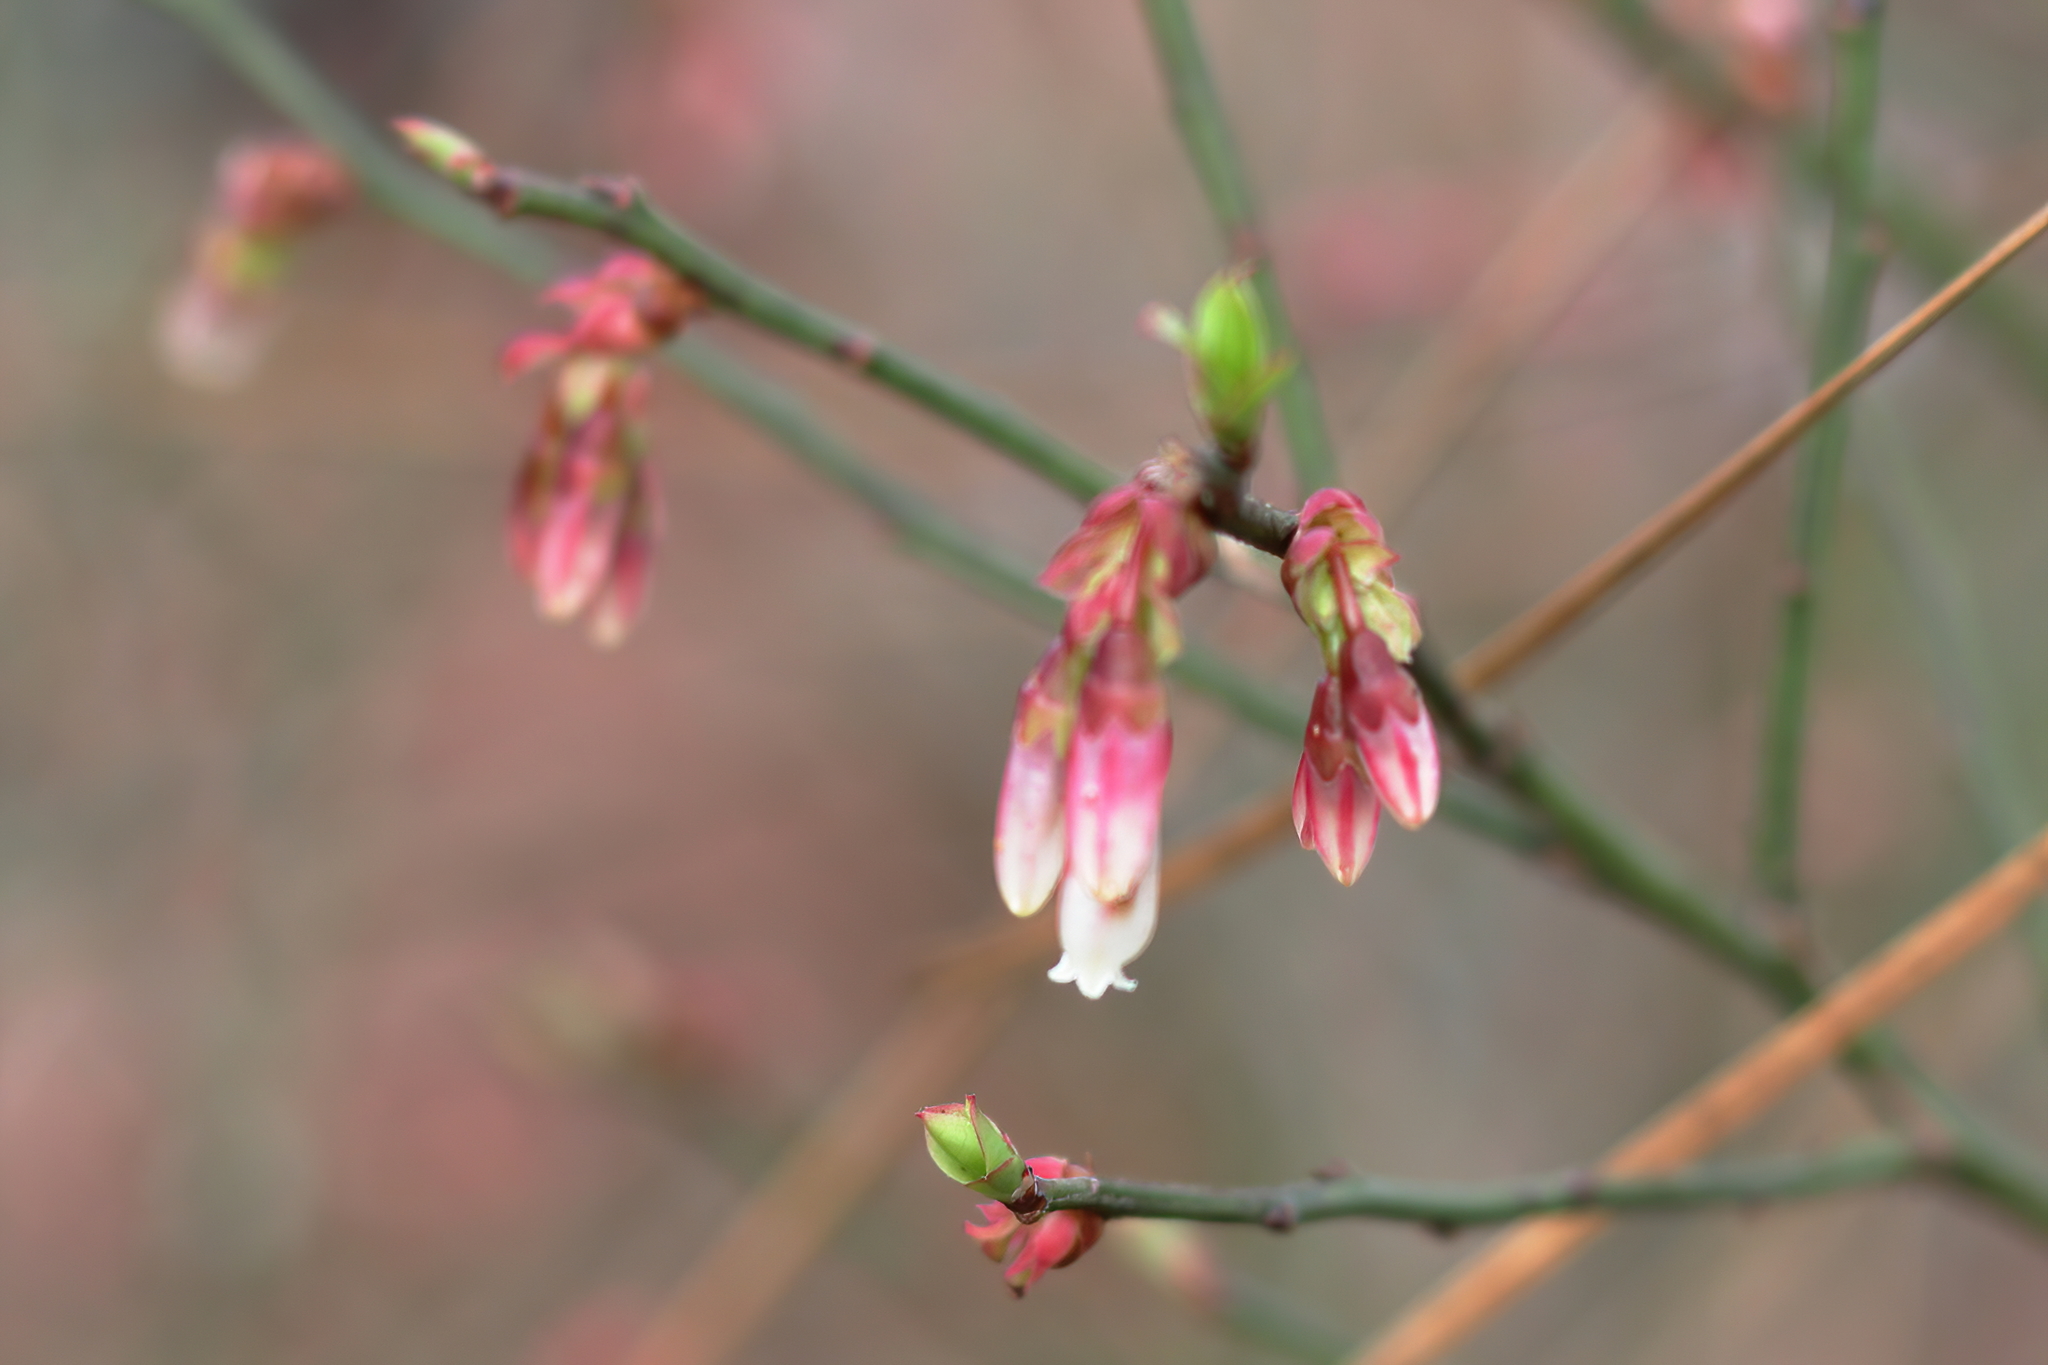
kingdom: Plantae
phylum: Tracheophyta
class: Magnoliopsida
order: Ericales
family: Ericaceae
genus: Vaccinium
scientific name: Vaccinium corymbosum
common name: Blueberry
